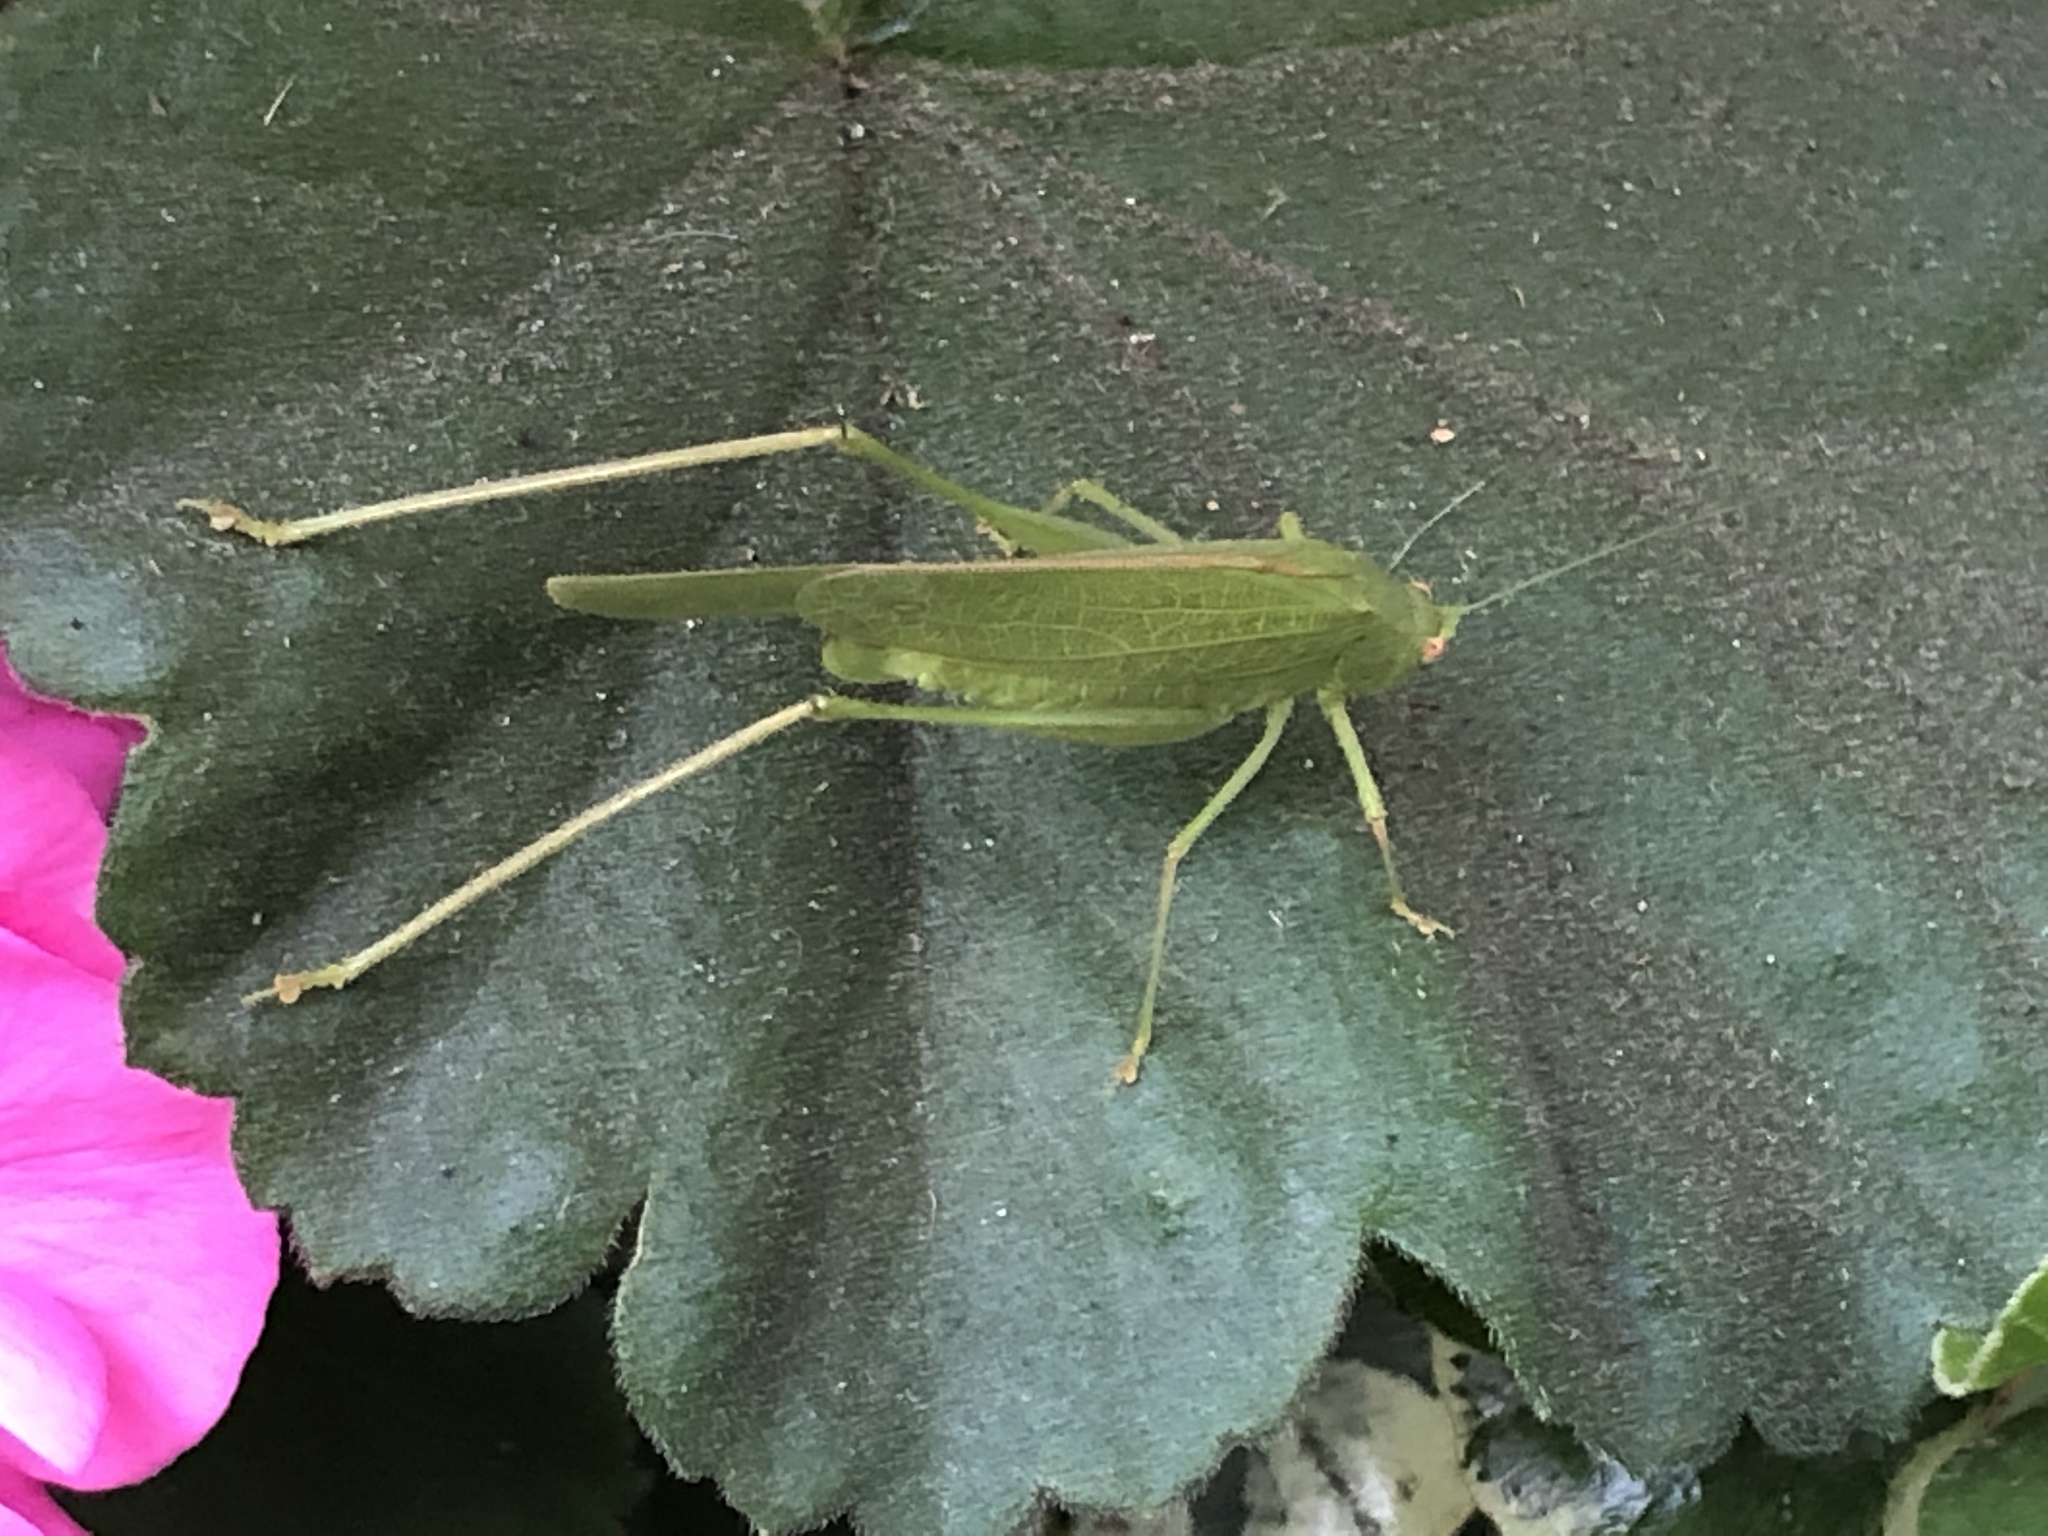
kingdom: Animalia
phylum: Arthropoda
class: Insecta
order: Orthoptera
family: Tettigoniidae
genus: Phaneroptera
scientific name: Phaneroptera nana
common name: Southern sickle bush-cricket
